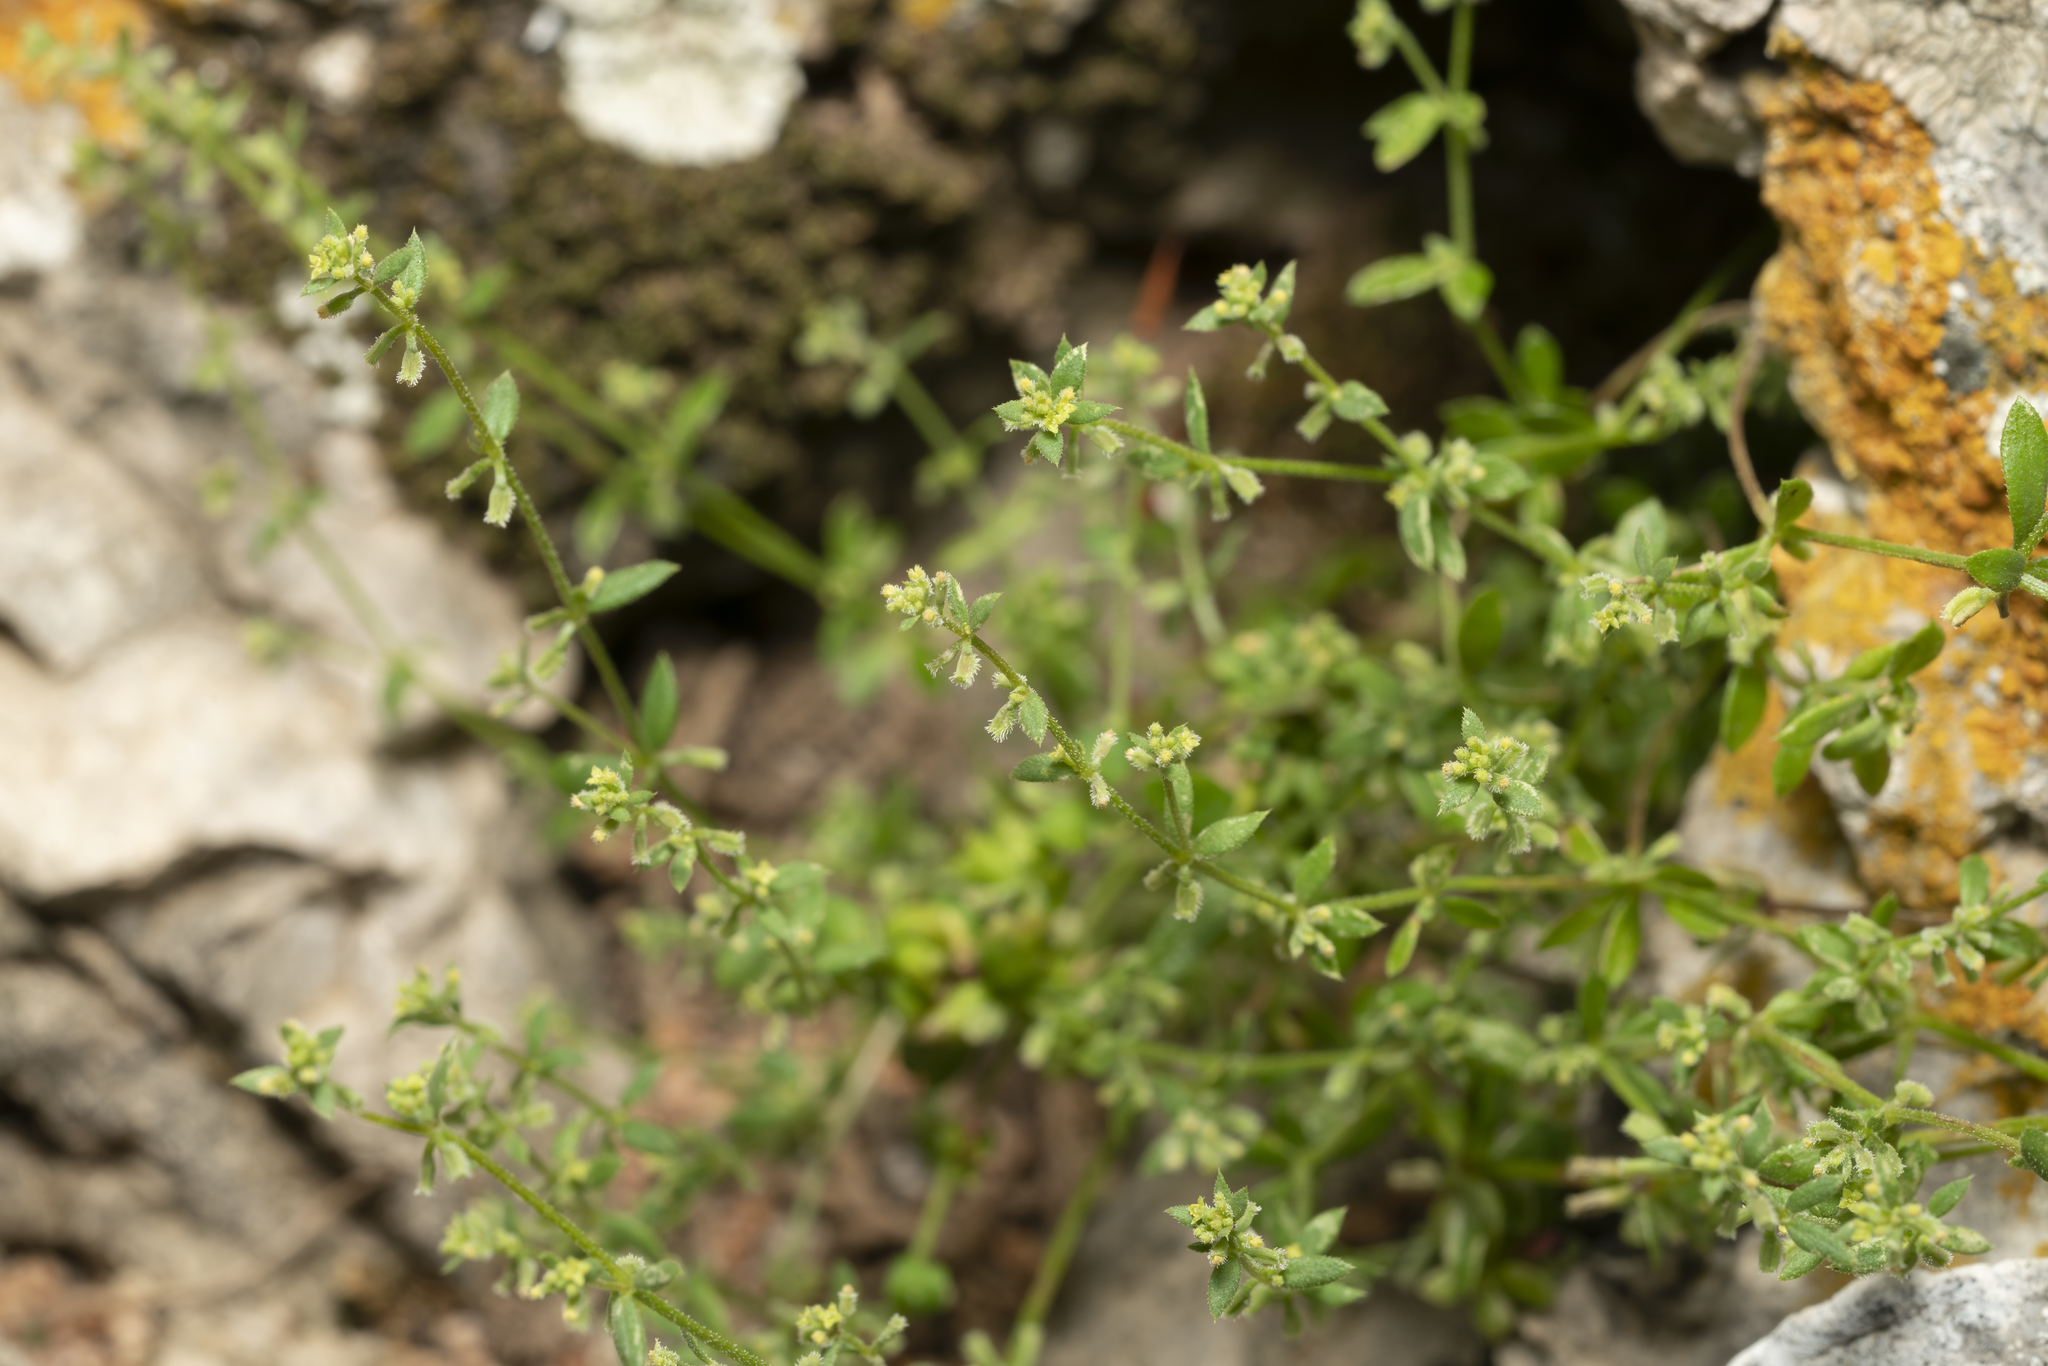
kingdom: Plantae
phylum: Tracheophyta
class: Magnoliopsida
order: Gentianales
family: Rubiaceae
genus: Galium
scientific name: Galium murale
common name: Yellow wall bedstraw
